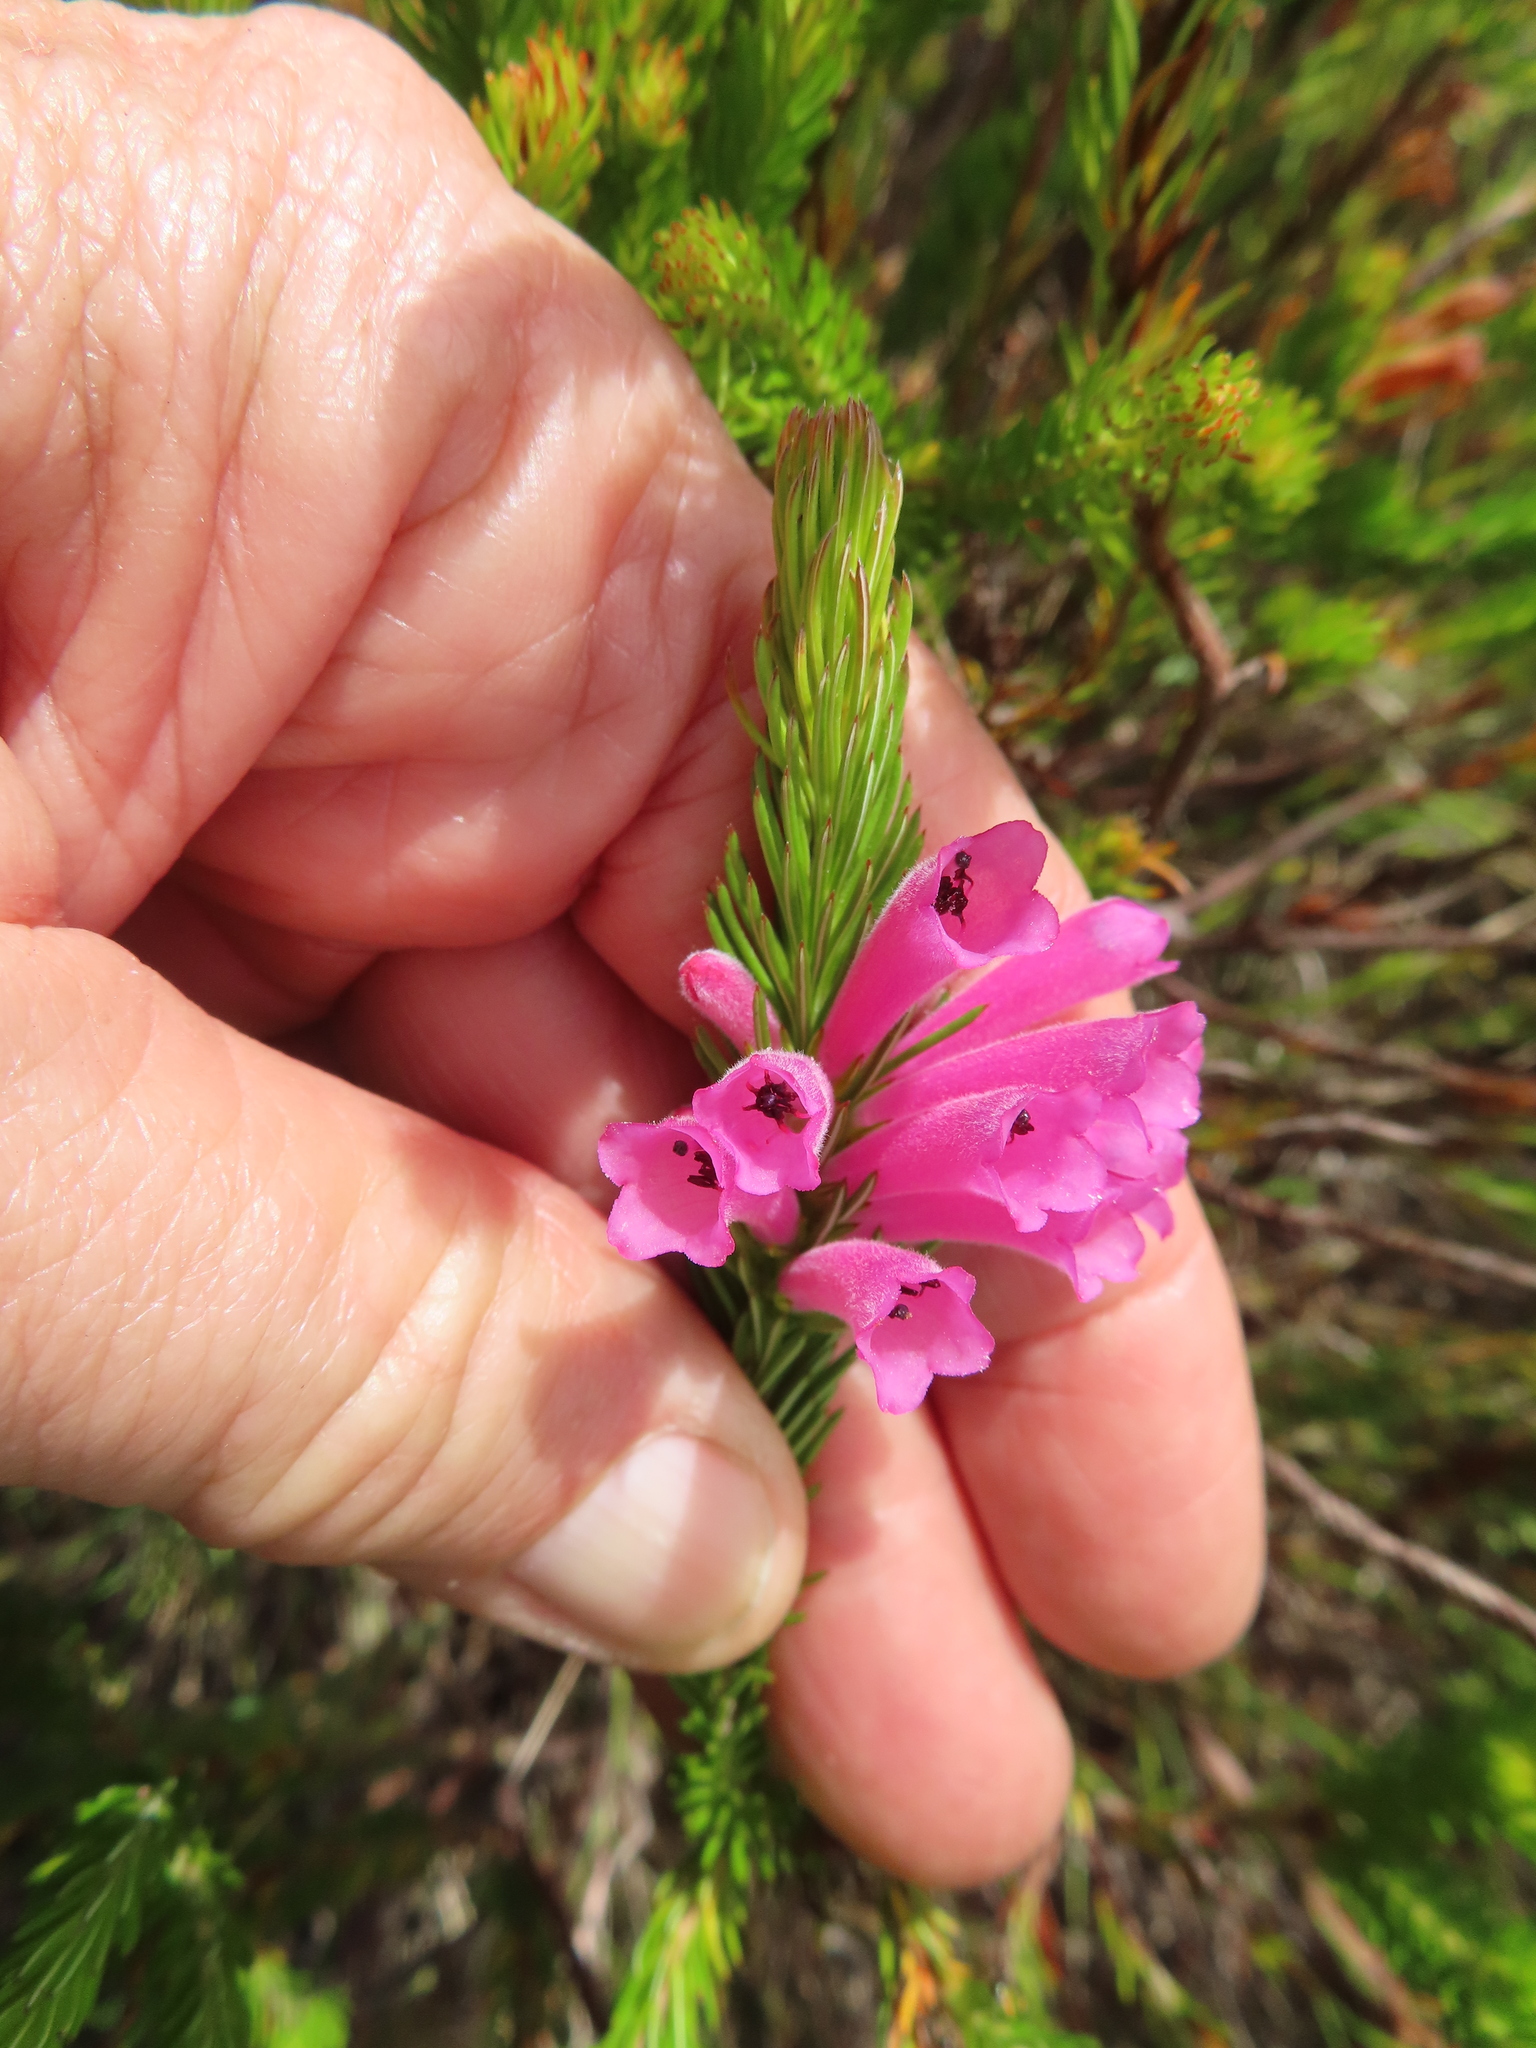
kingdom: Plantae
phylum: Tracheophyta
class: Magnoliopsida
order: Ericales
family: Ericaceae
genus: Erica
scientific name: Erica viscaria
